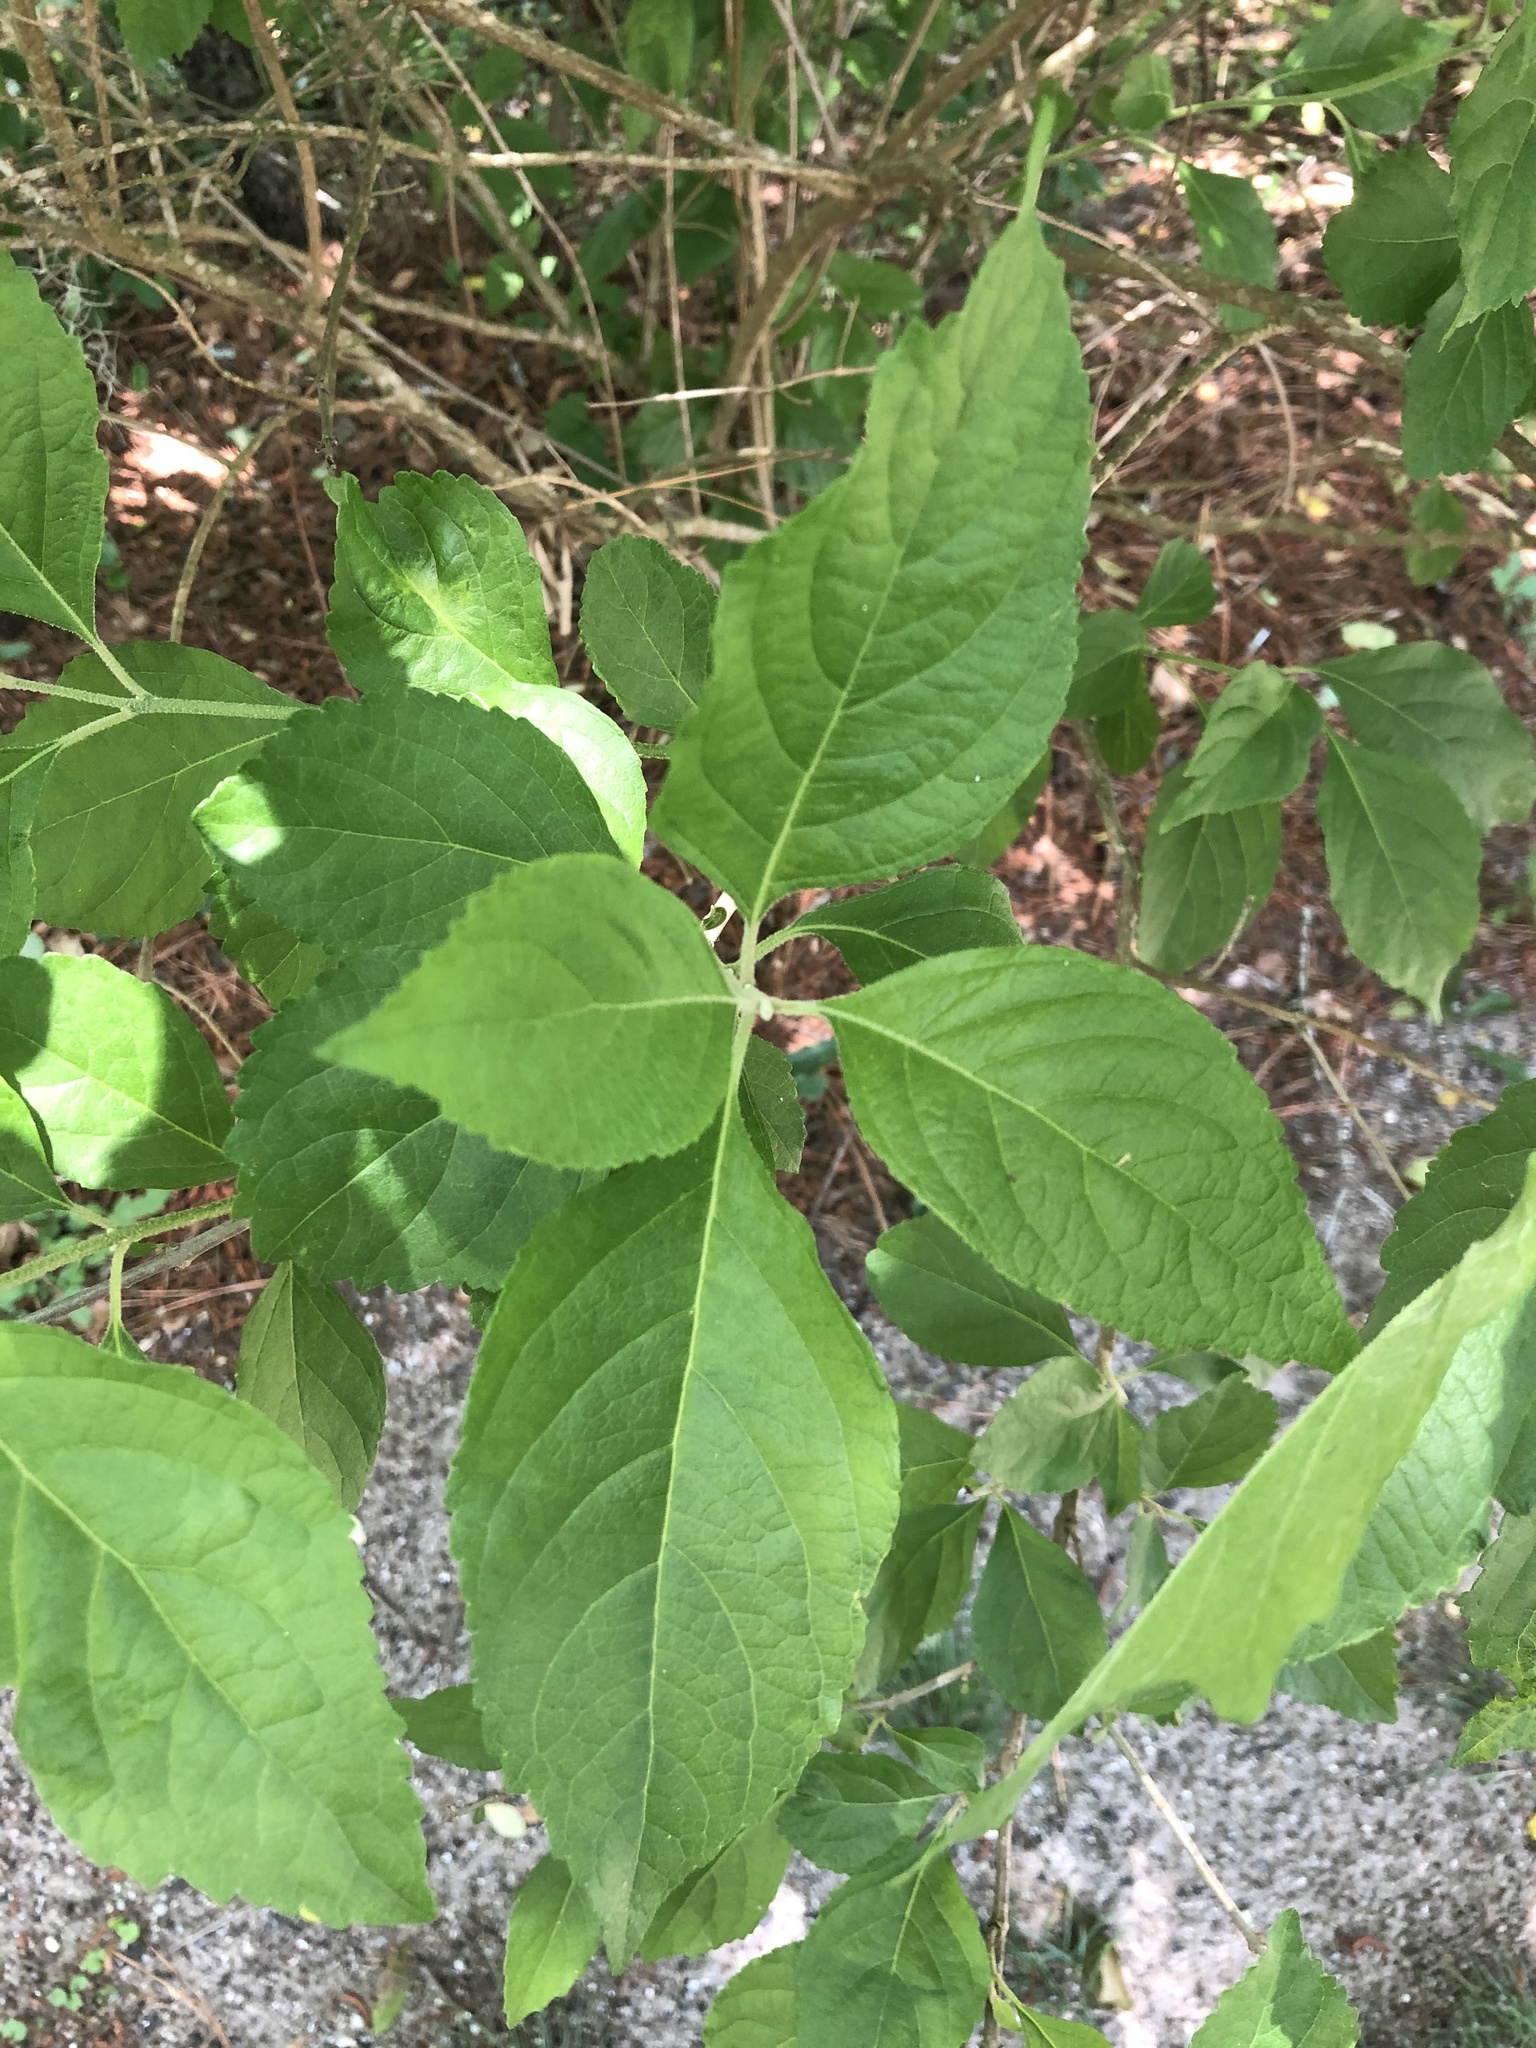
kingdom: Plantae
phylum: Tracheophyta
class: Magnoliopsida
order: Lamiales
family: Lamiaceae
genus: Callicarpa
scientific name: Callicarpa americana
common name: American beautyberry
